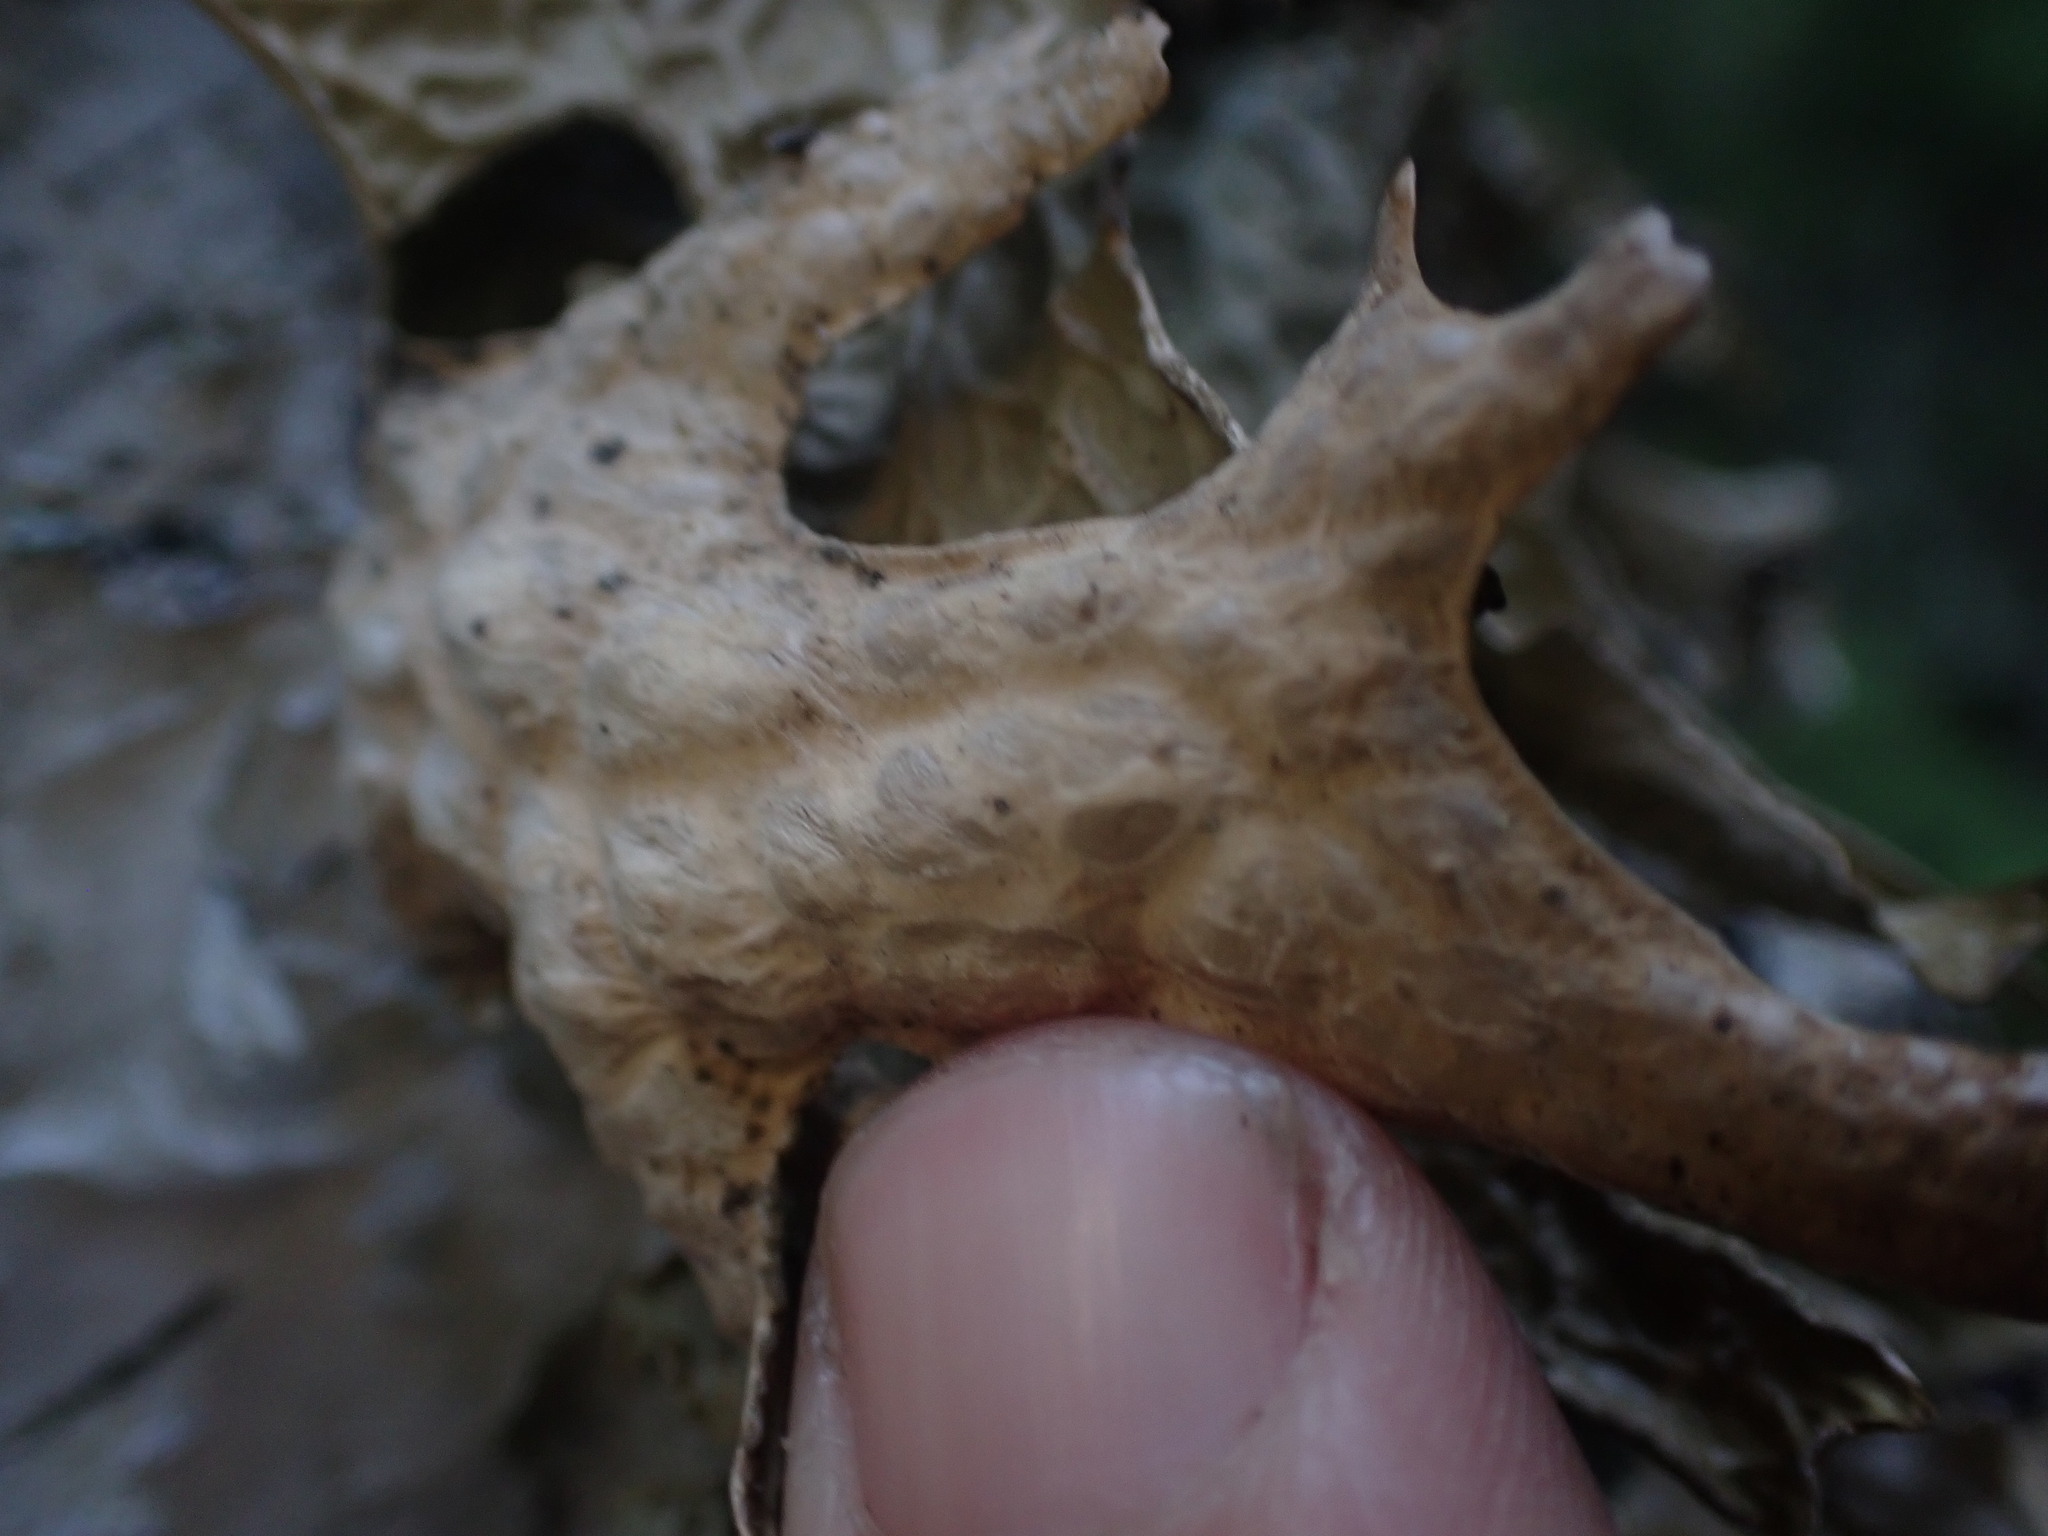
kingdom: Fungi
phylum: Ascomycota
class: Lecanoromycetes
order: Peltigerales
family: Lobariaceae
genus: Lobaria
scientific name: Lobaria pulmonaria
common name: Lungwort
